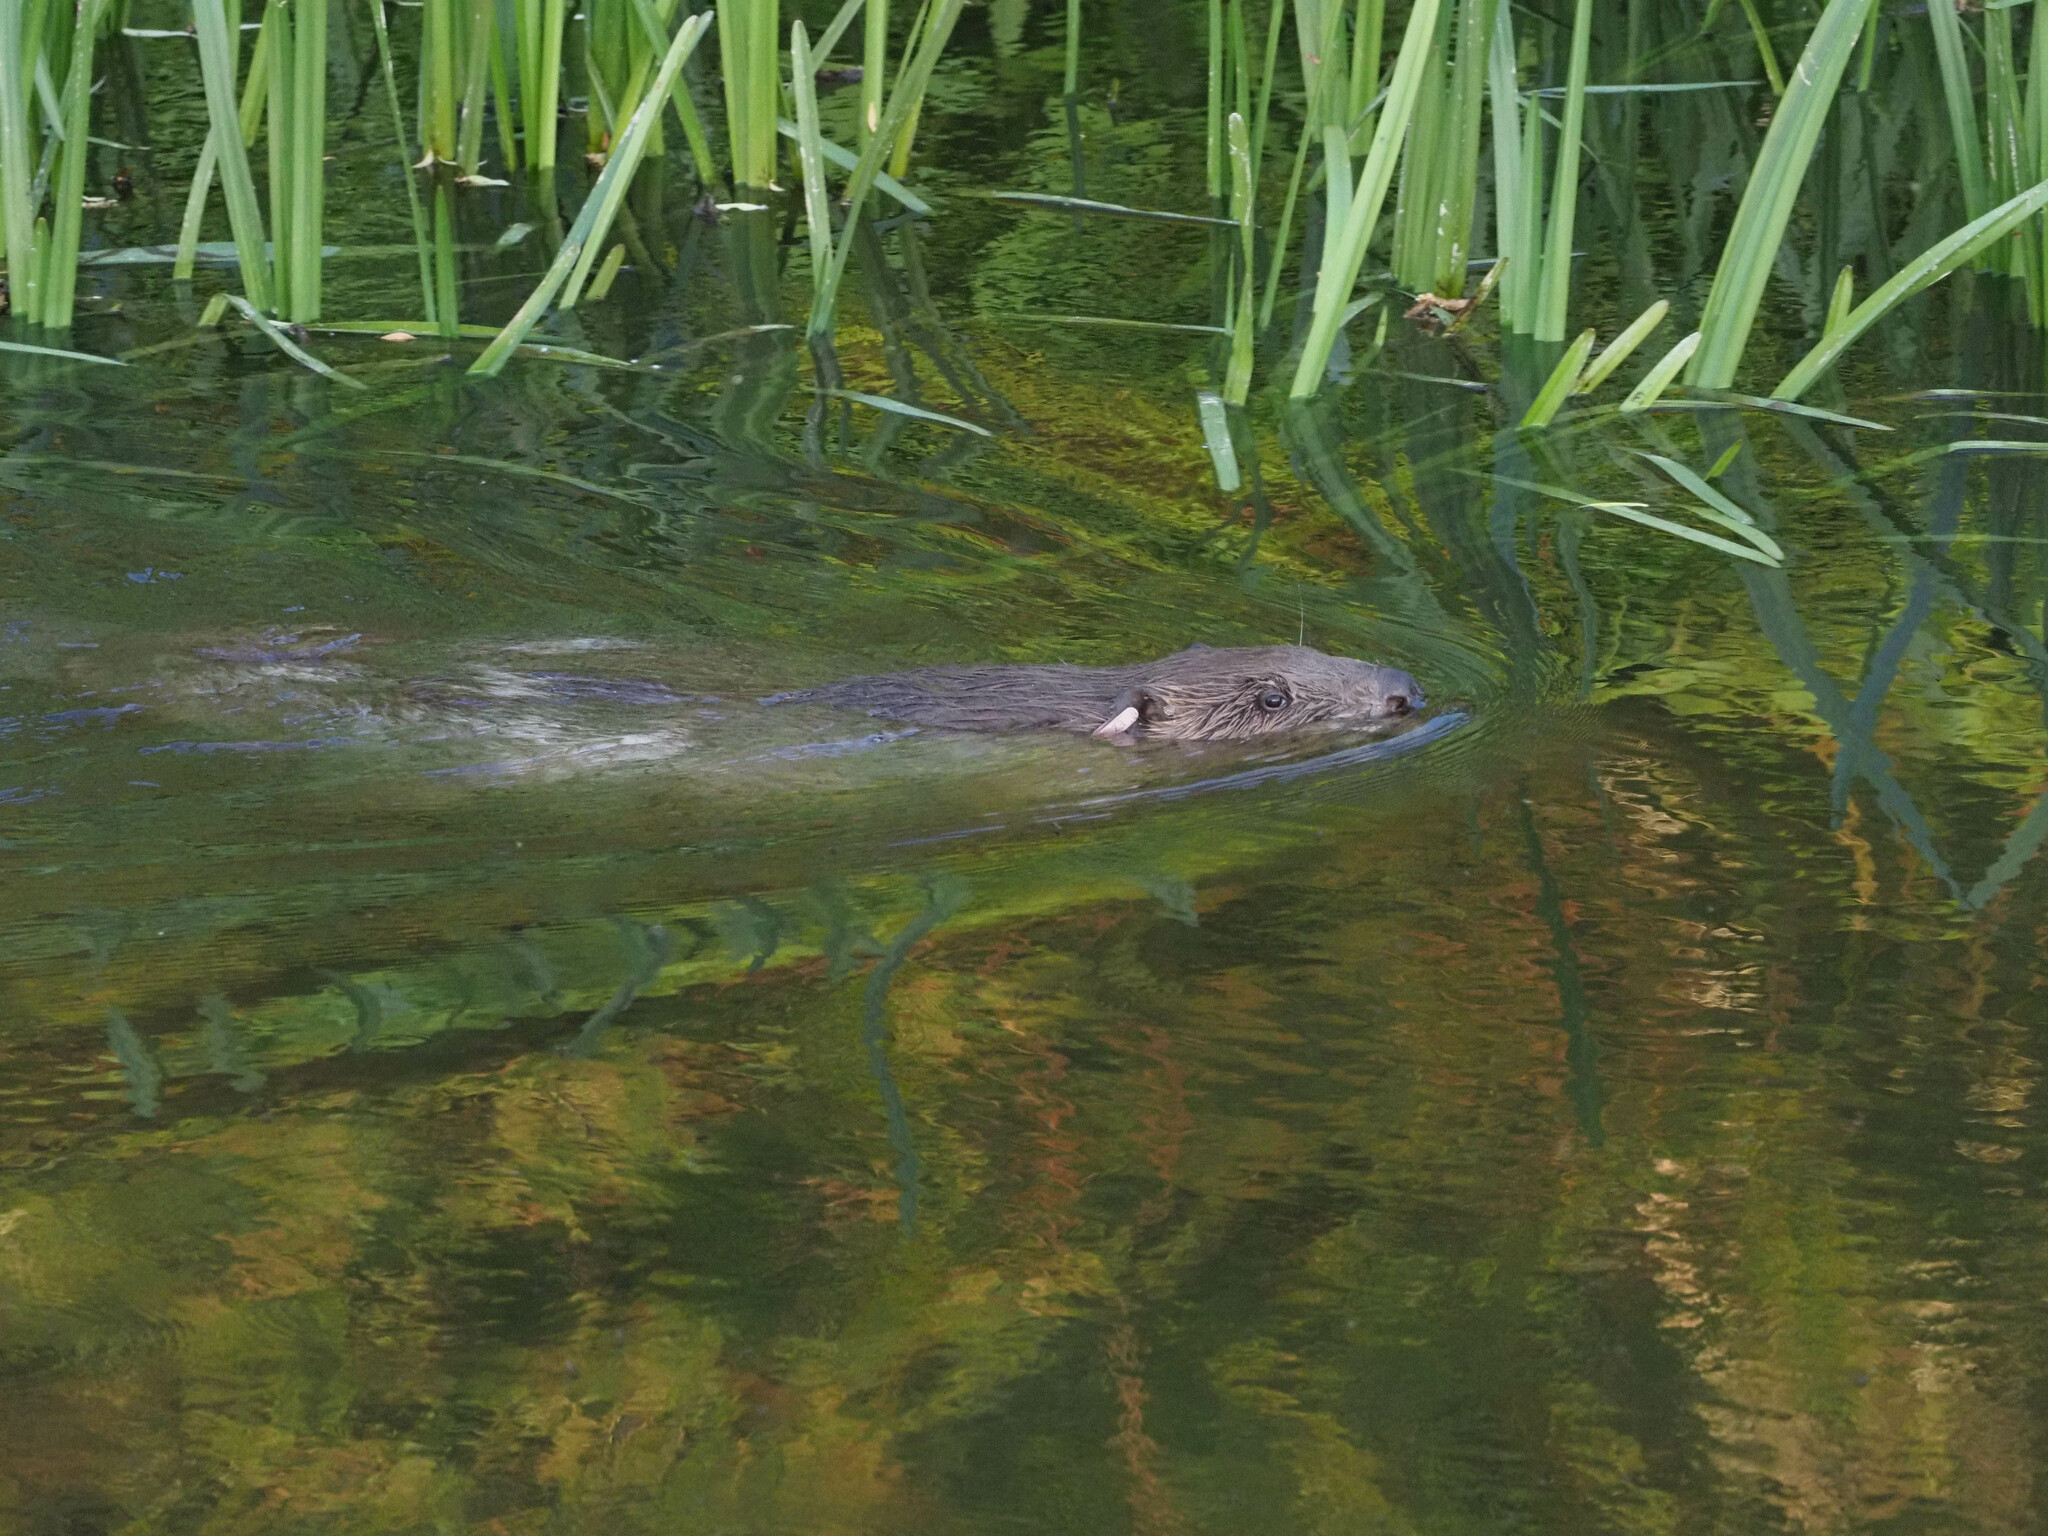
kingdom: Animalia
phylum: Chordata
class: Mammalia
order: Rodentia
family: Castoridae
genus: Castor
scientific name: Castor fiber
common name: Eurasian beaver
